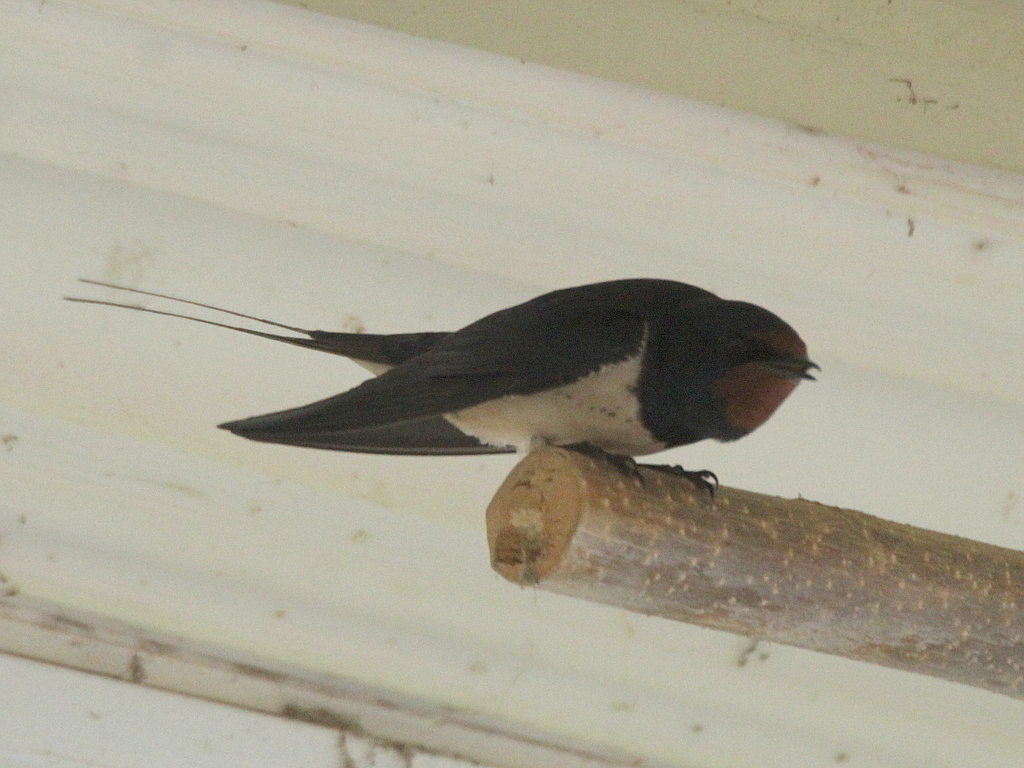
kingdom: Animalia
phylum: Chordata
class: Aves
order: Passeriformes
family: Hirundinidae
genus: Hirundo
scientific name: Hirundo rustica
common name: Barn swallow
